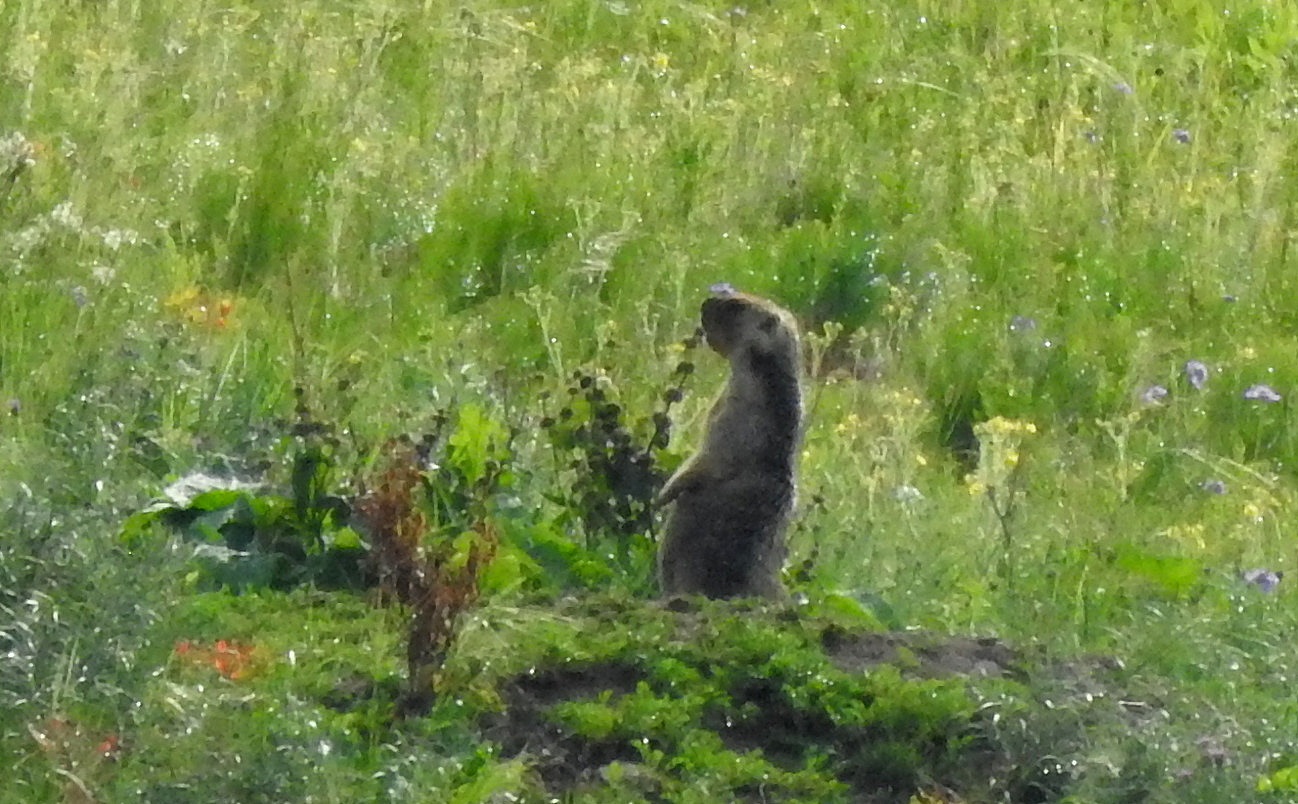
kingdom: Animalia
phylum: Chordata
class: Mammalia
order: Rodentia
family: Sciuridae
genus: Marmota
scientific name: Marmota sibirica
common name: Tarbagan marmot
